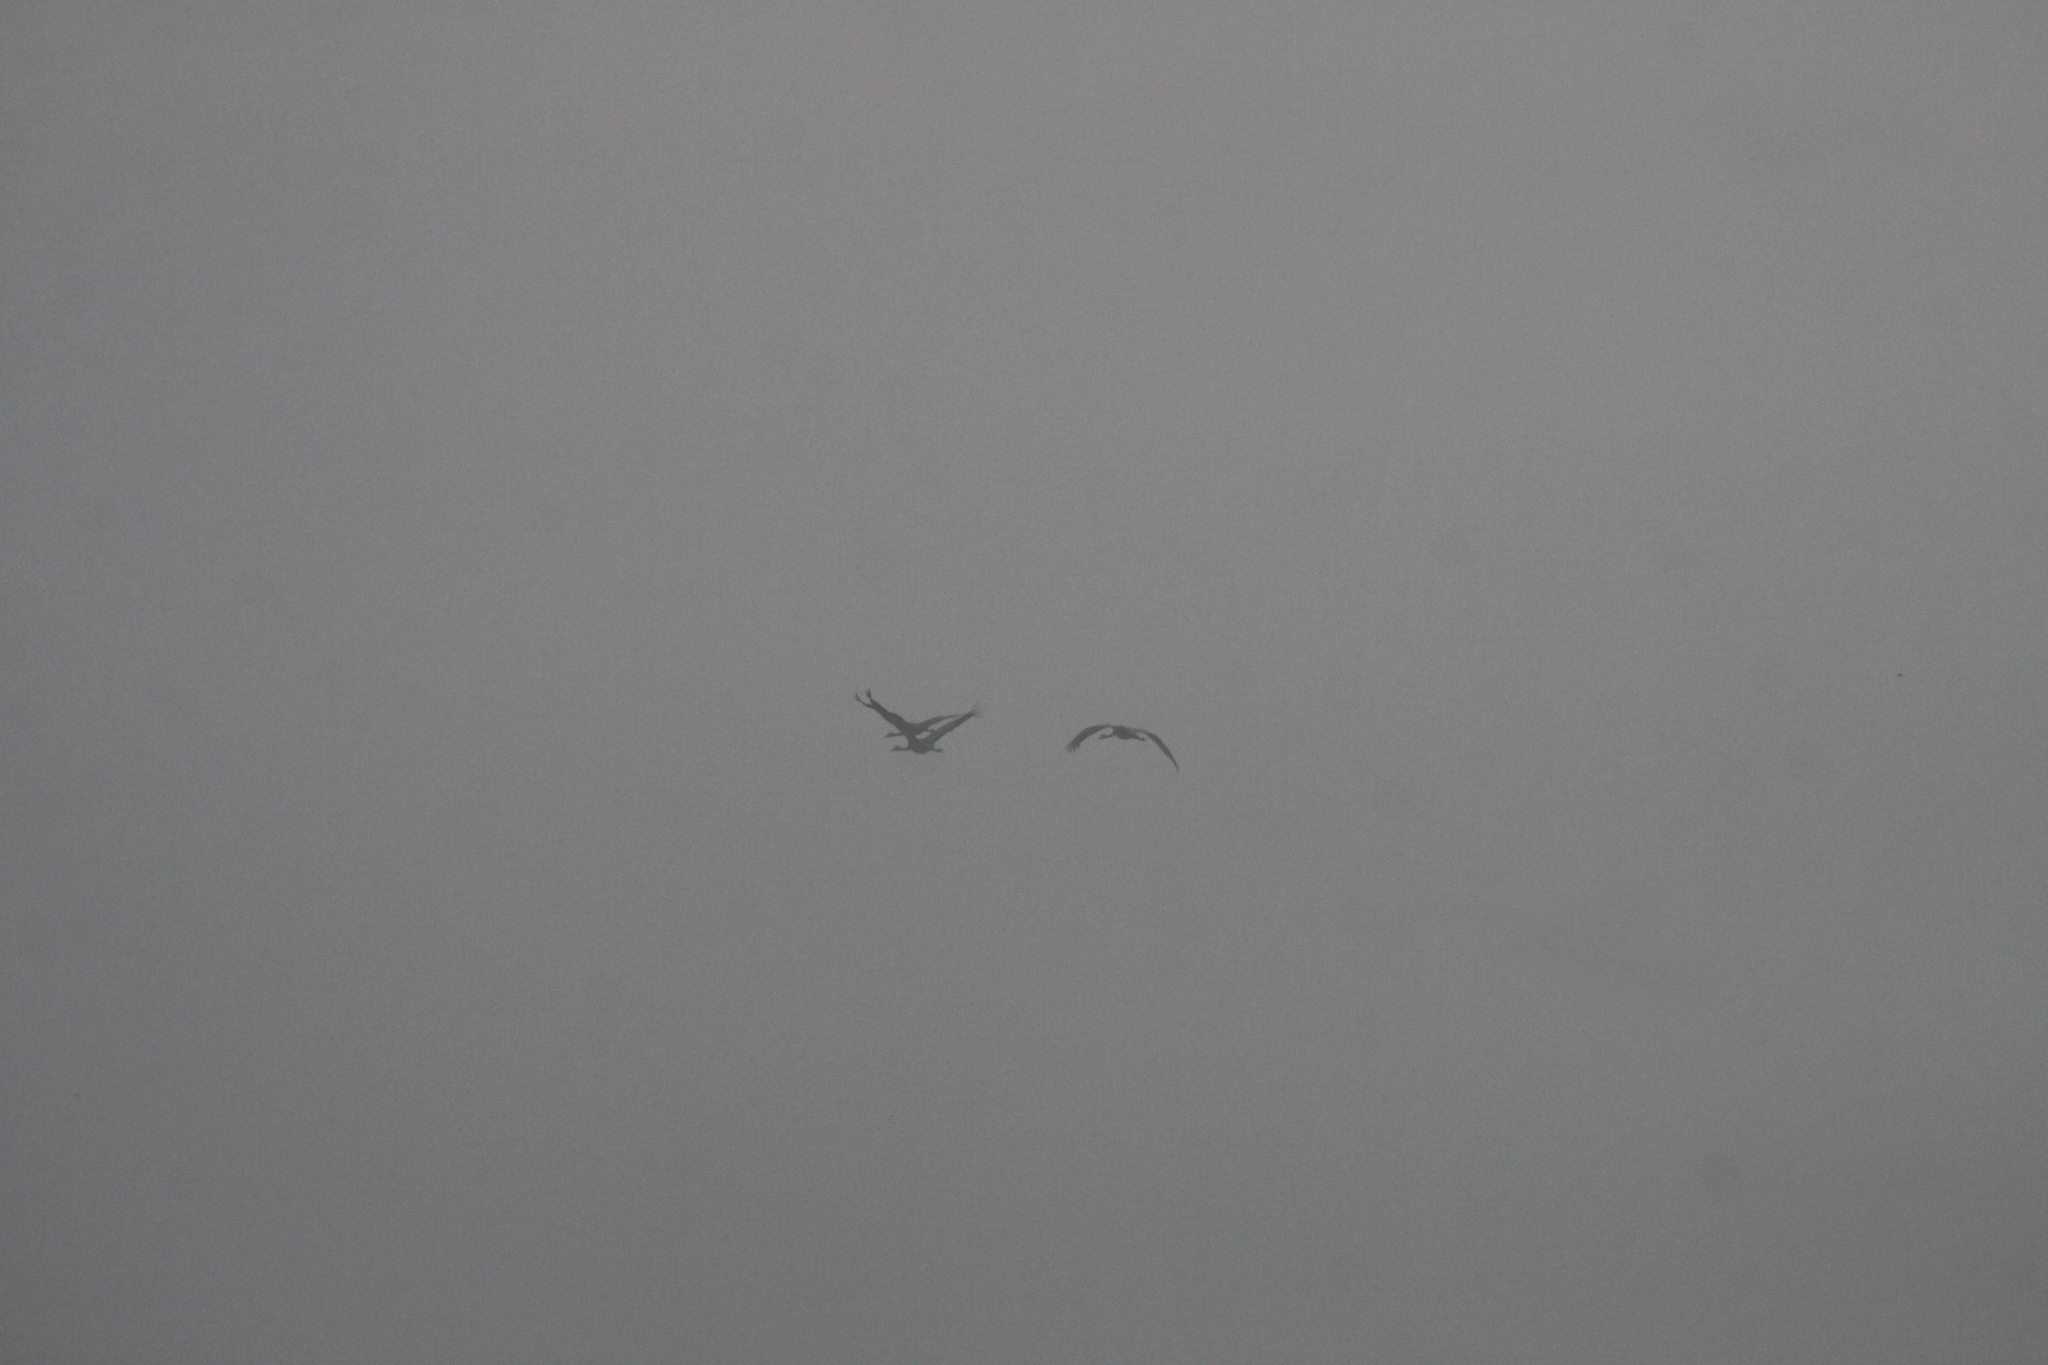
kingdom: Animalia
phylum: Chordata
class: Aves
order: Gruiformes
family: Gruidae
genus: Grus
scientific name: Grus grus
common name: Common crane
